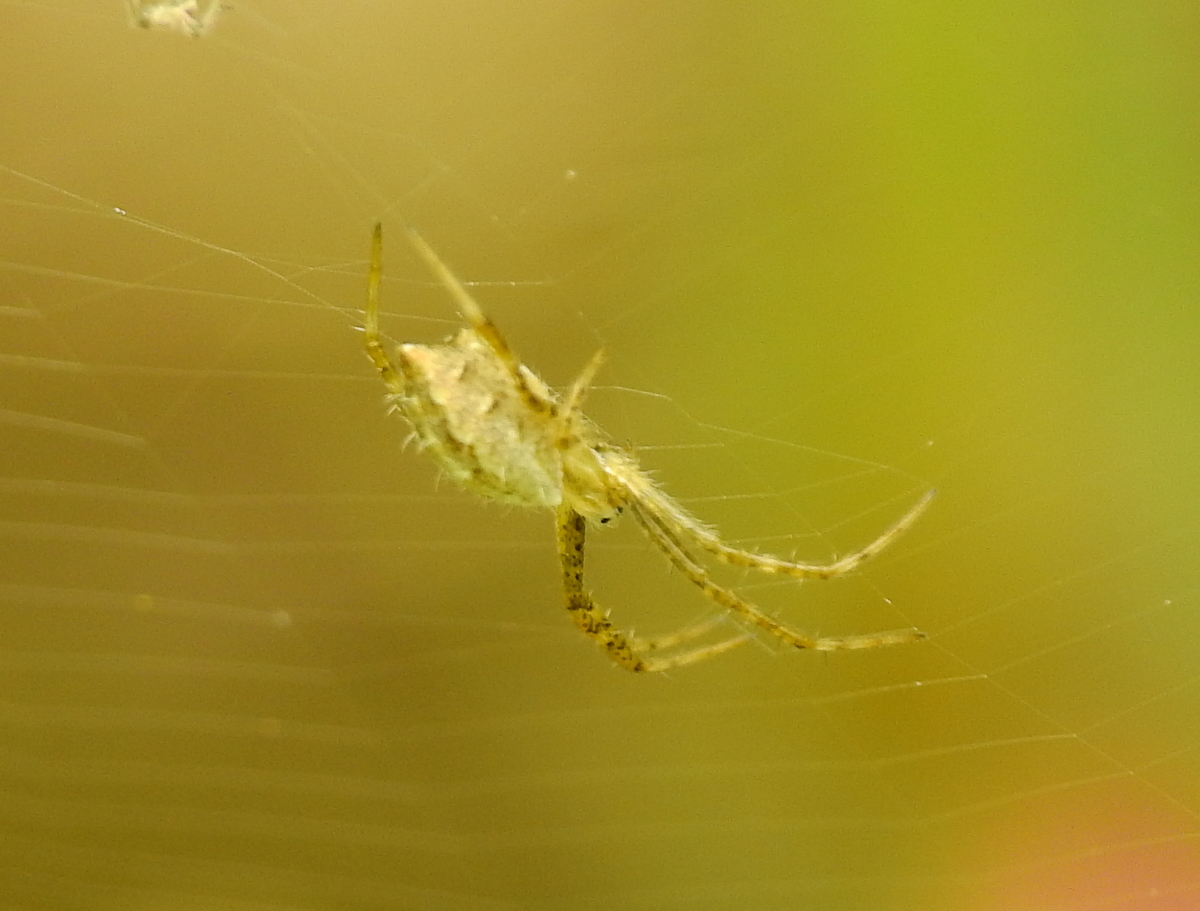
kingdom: Animalia
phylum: Arthropoda
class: Arachnida
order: Araneae
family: Araneidae
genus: Argiope
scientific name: Argiope argentata
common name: Orb weavers
